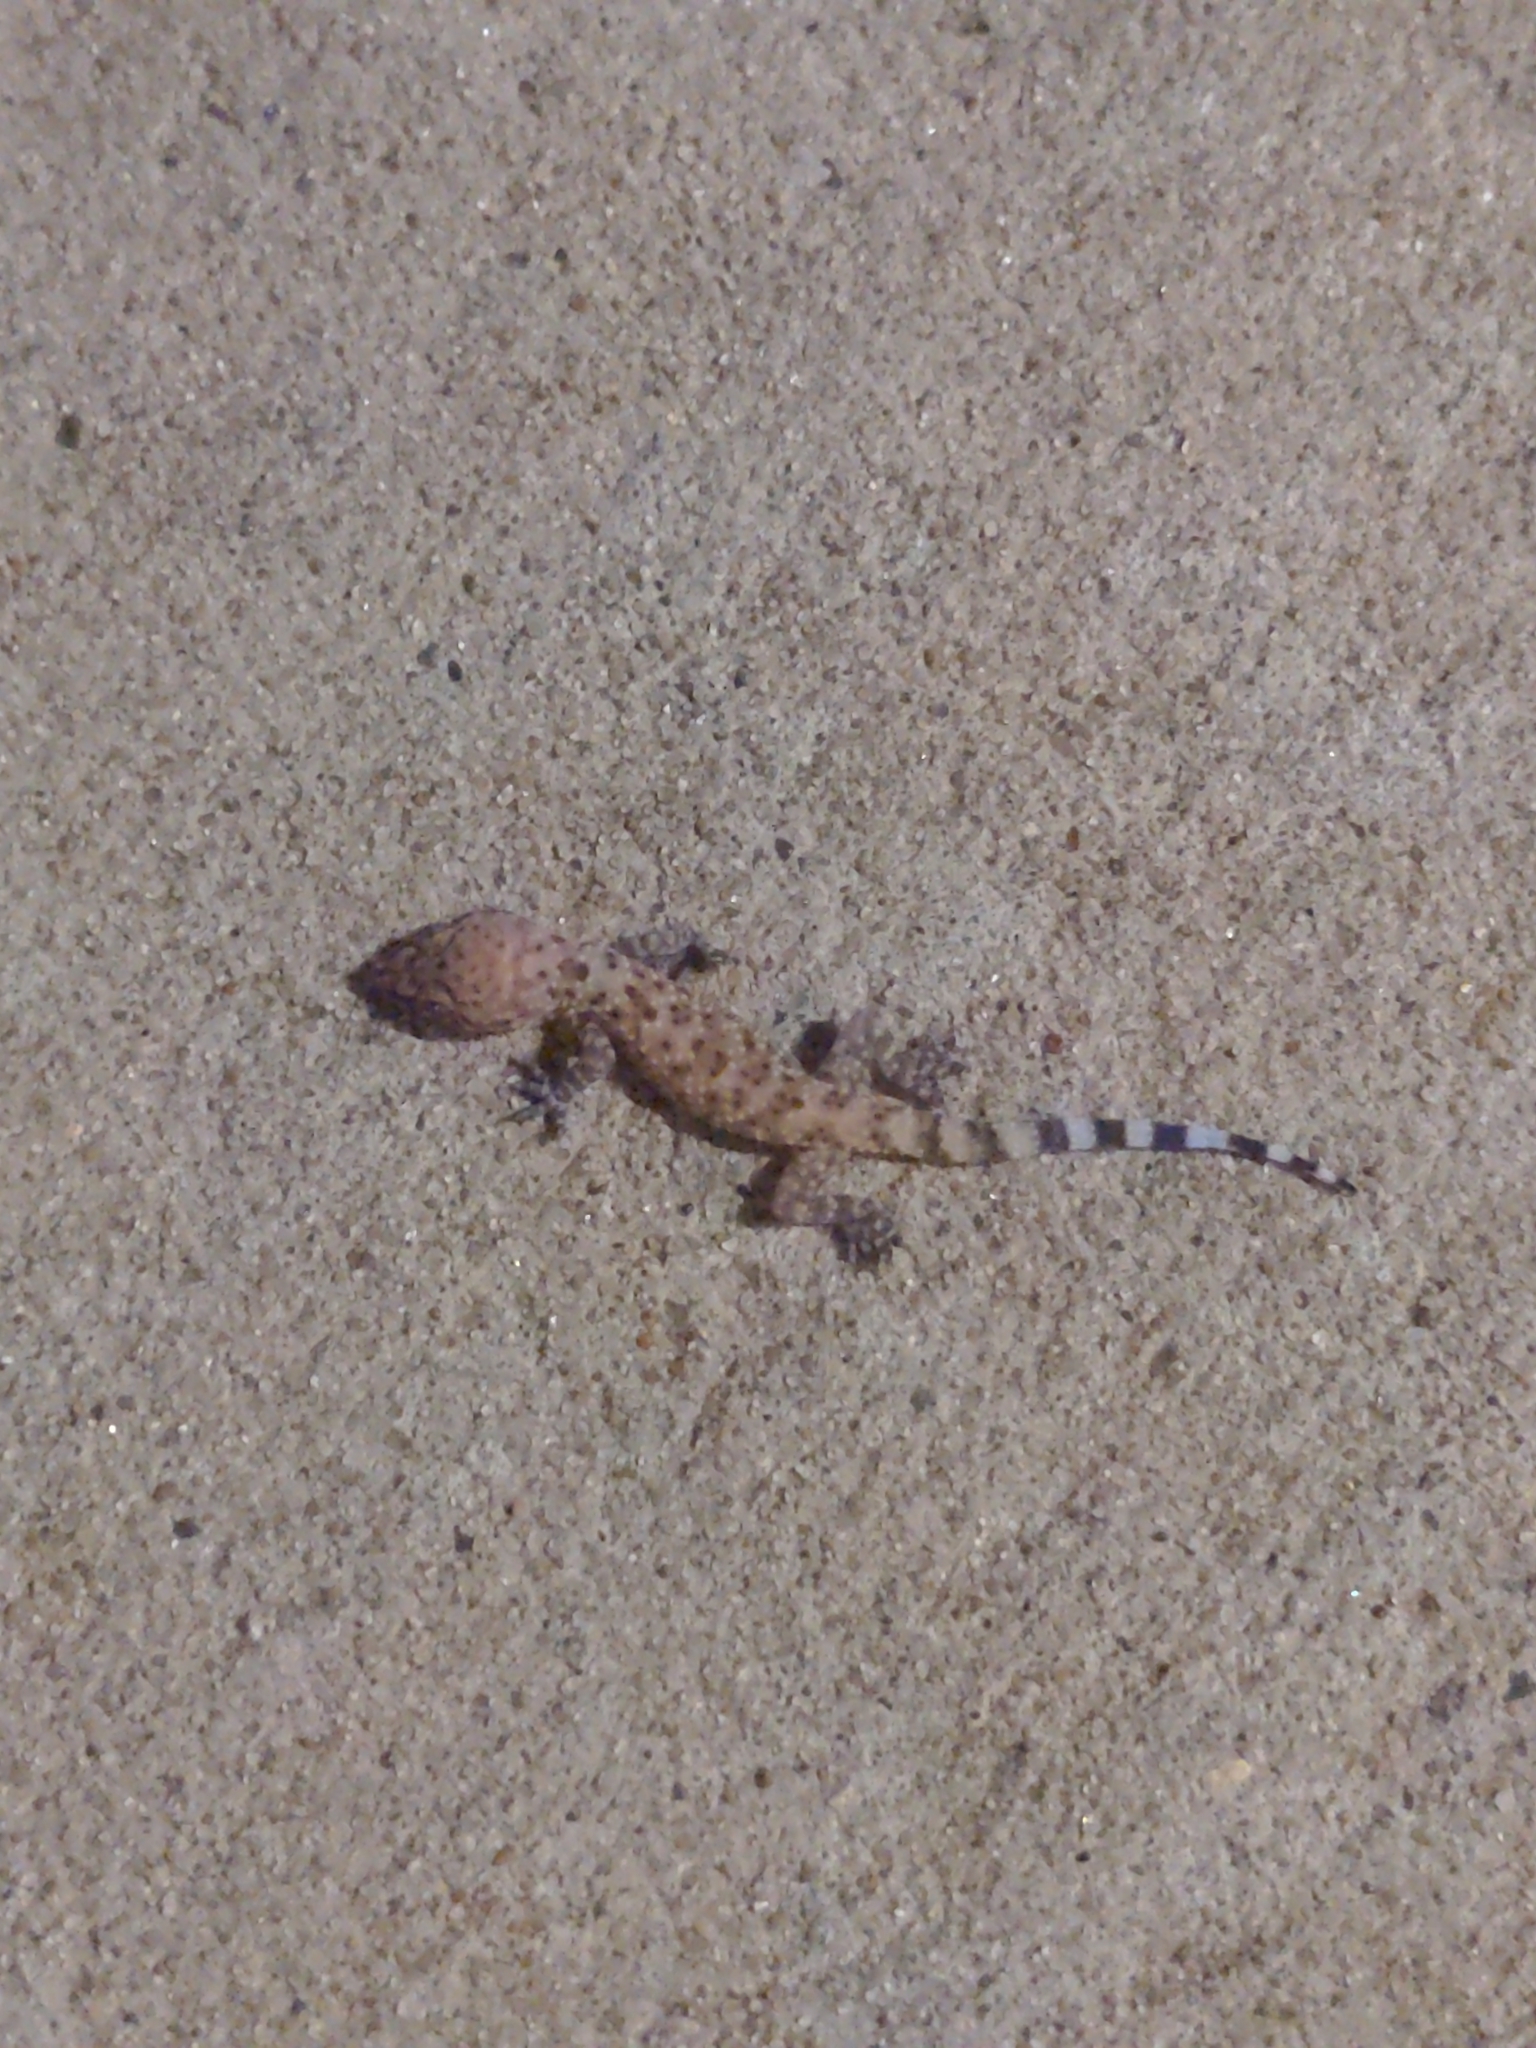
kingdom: Animalia
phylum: Chordata
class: Squamata
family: Gekkonidae
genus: Hemidactylus
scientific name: Hemidactylus turcicus
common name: Turkish gecko
